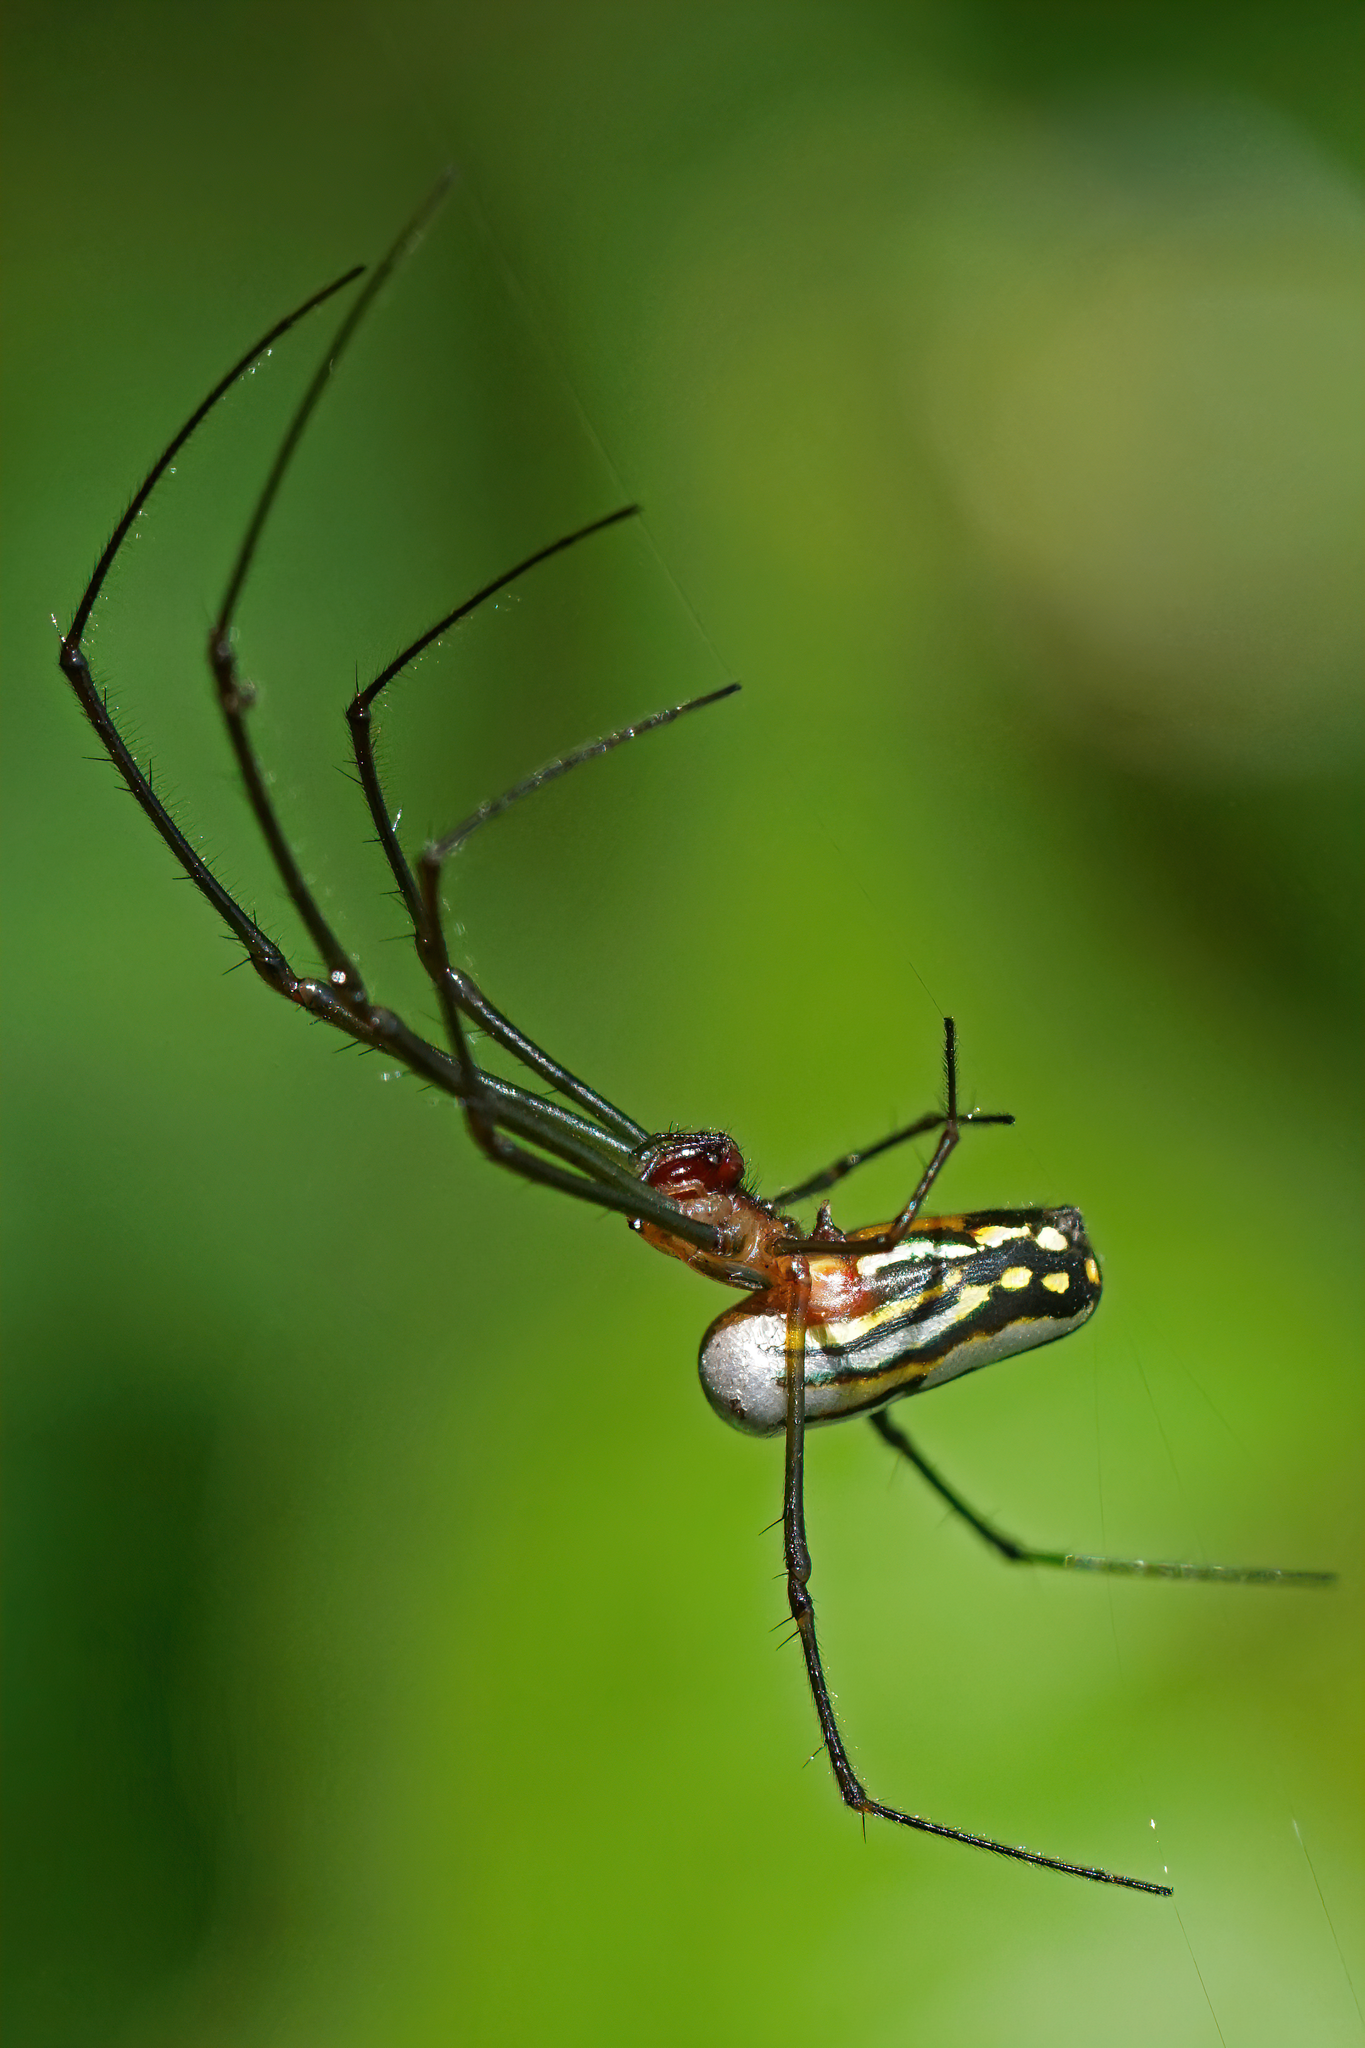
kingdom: Animalia
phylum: Arthropoda
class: Arachnida
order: Araneae
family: Tetragnathidae
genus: Leucauge
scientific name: Leucauge argyra
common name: Longjawed orb weavers
